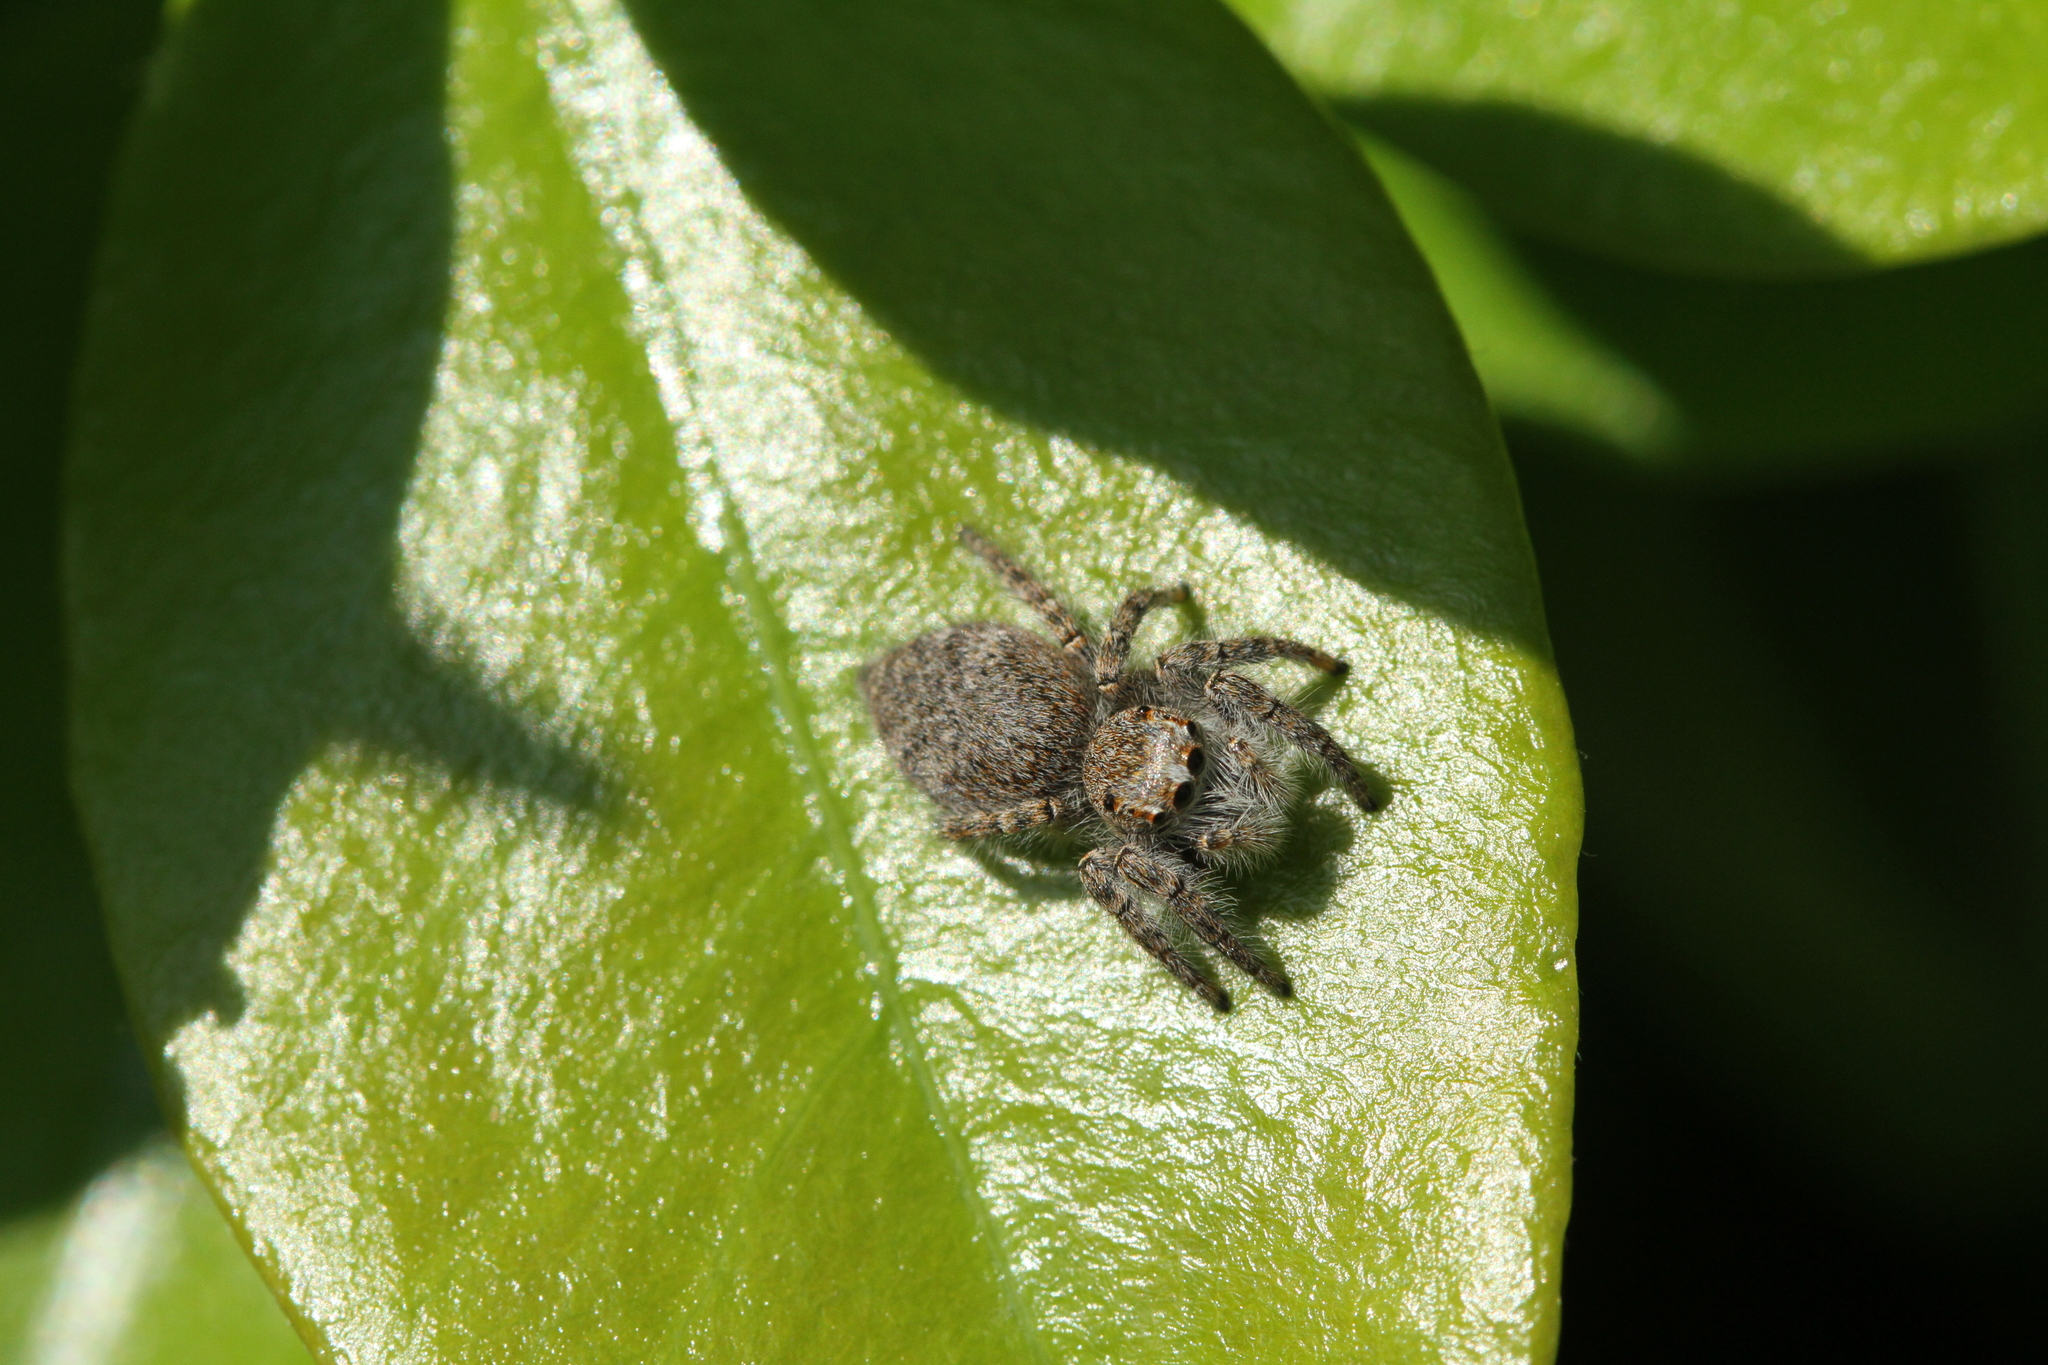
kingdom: Animalia
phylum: Arthropoda
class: Arachnida
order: Araneae
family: Salticidae
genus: Philaeus
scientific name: Philaeus chrysops
